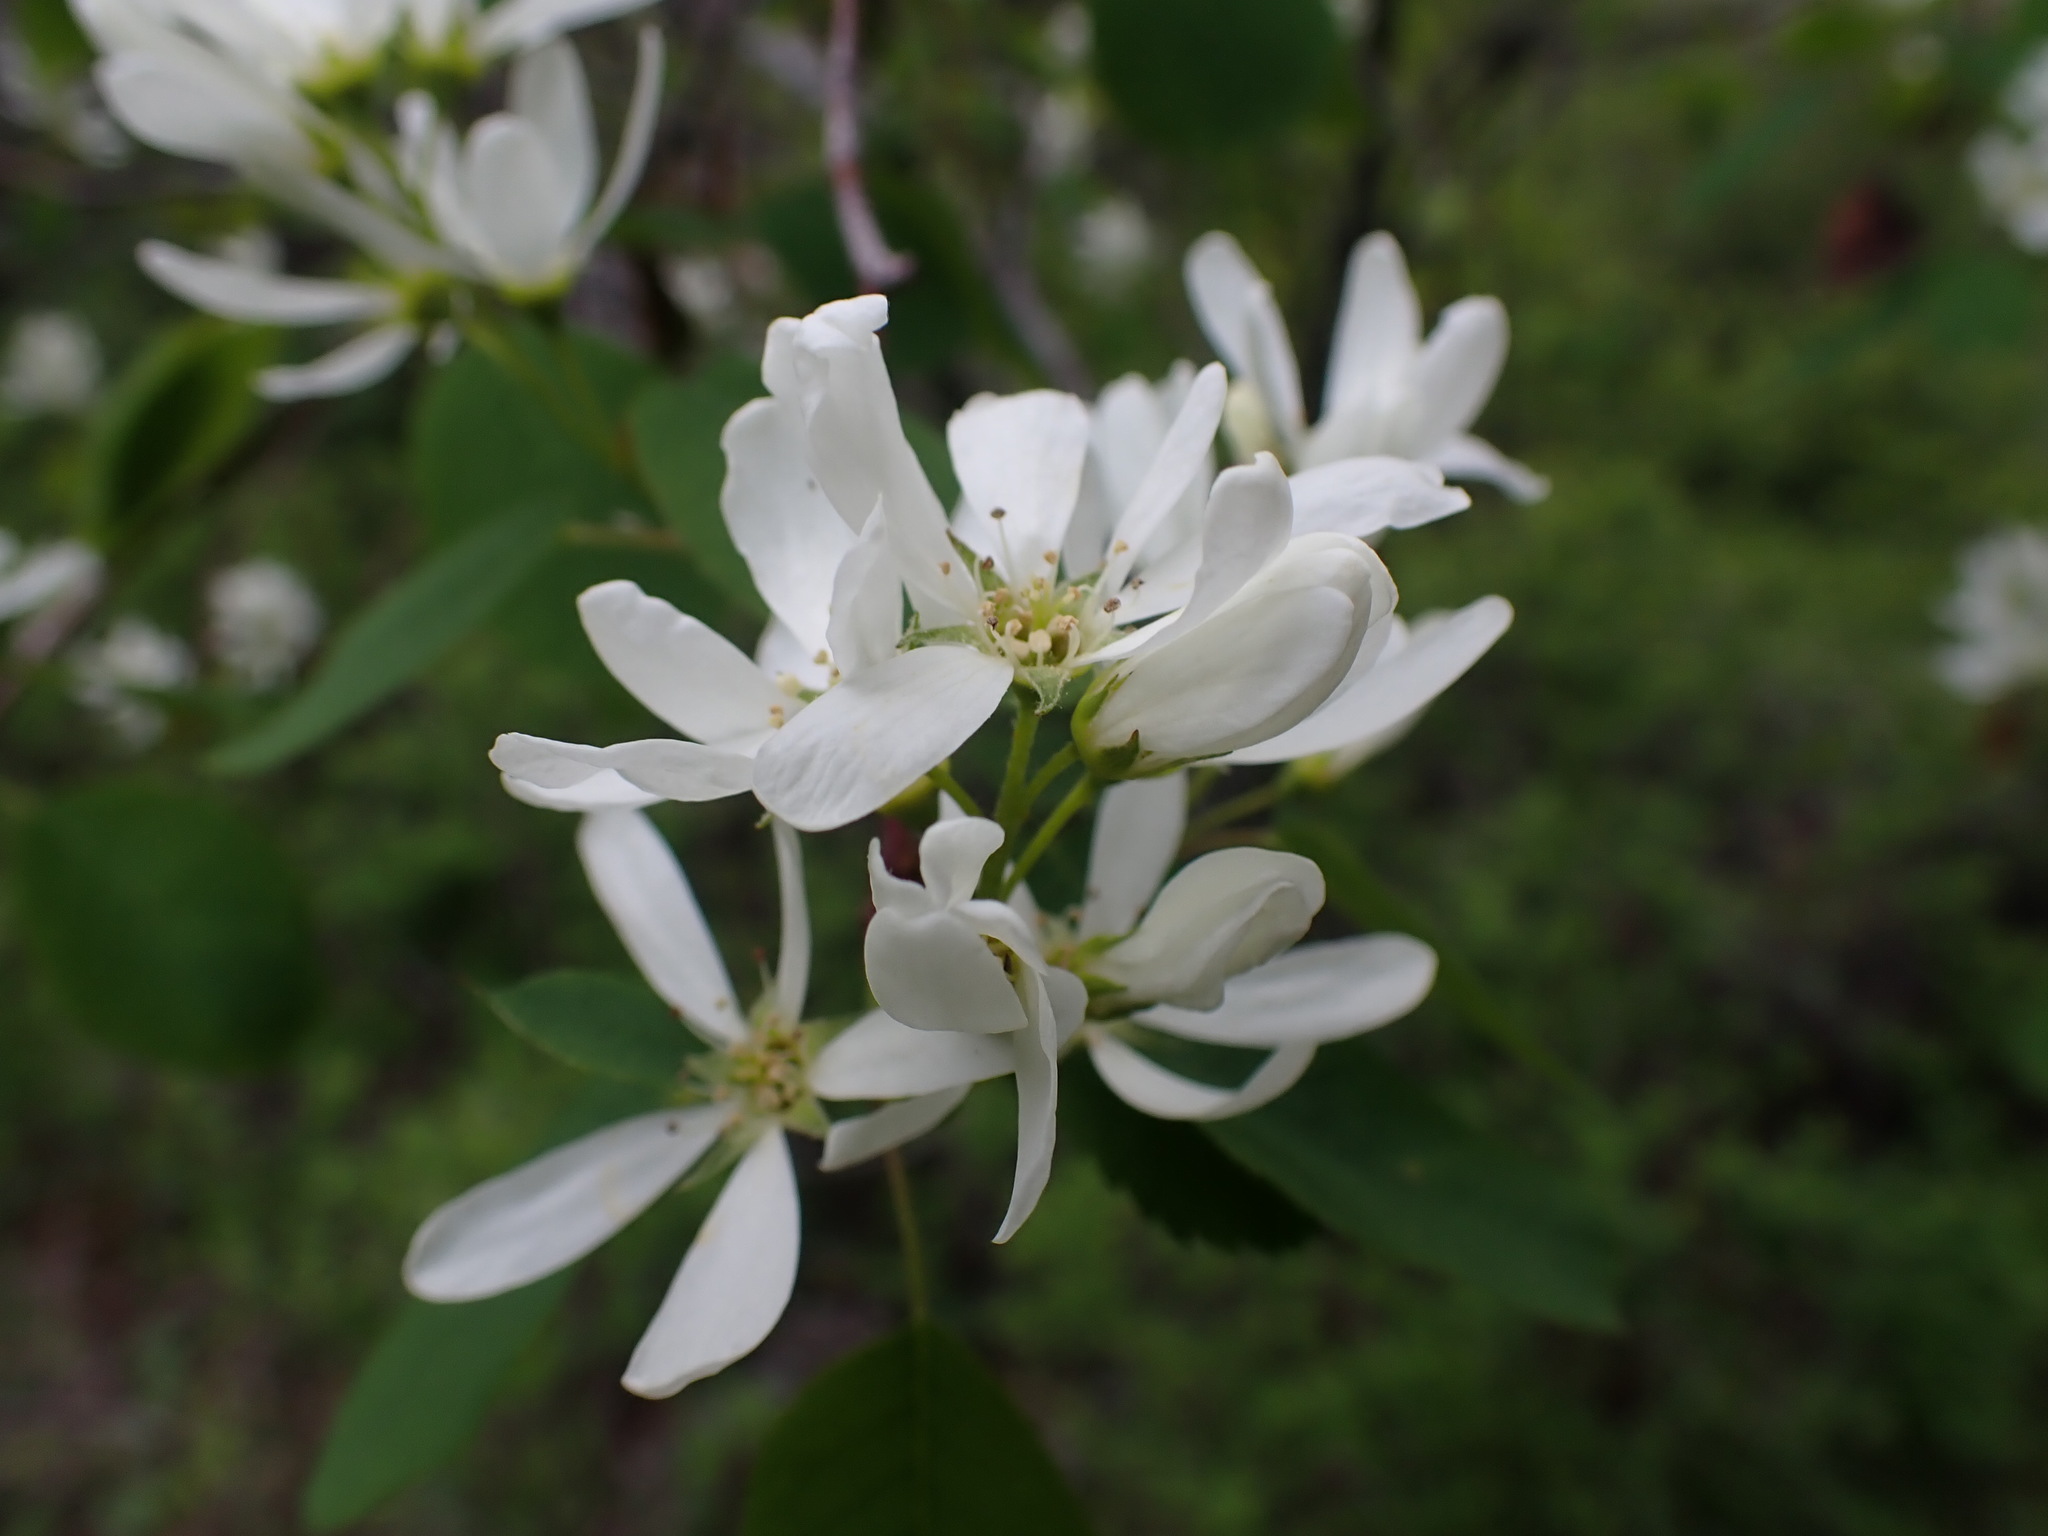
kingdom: Plantae
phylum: Tracheophyta
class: Magnoliopsida
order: Rosales
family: Rosaceae
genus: Amelanchier
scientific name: Amelanchier alnifolia
